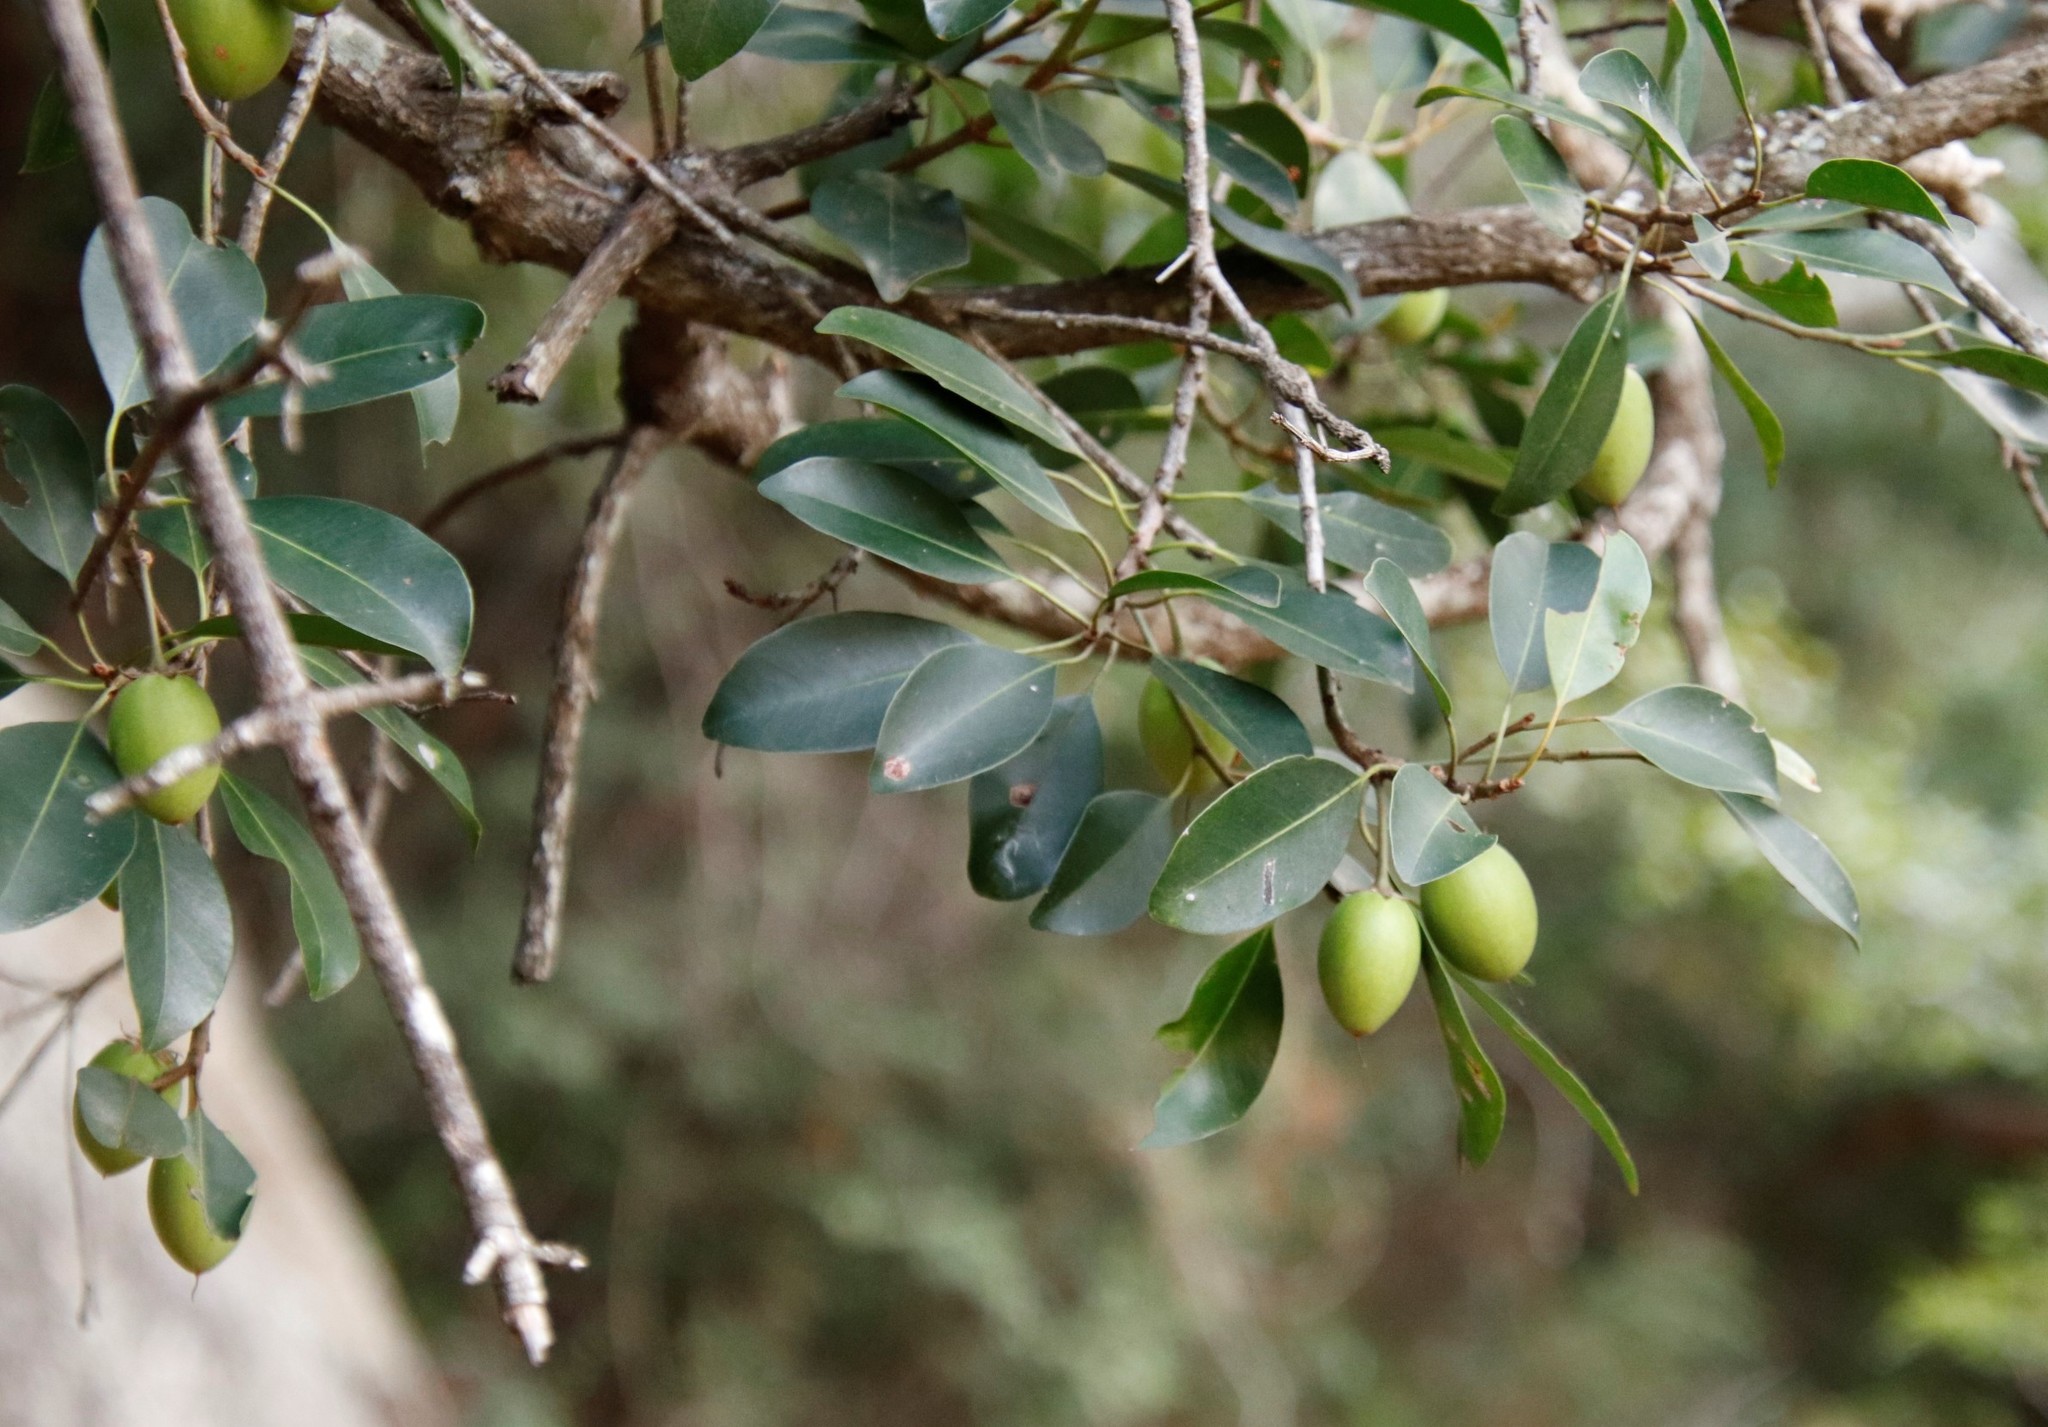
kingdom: Plantae
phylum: Tracheophyta
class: Magnoliopsida
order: Ericales
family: Sapotaceae
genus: Mimusops
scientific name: Mimusops zeyheri
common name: Transvaal red milkwood
